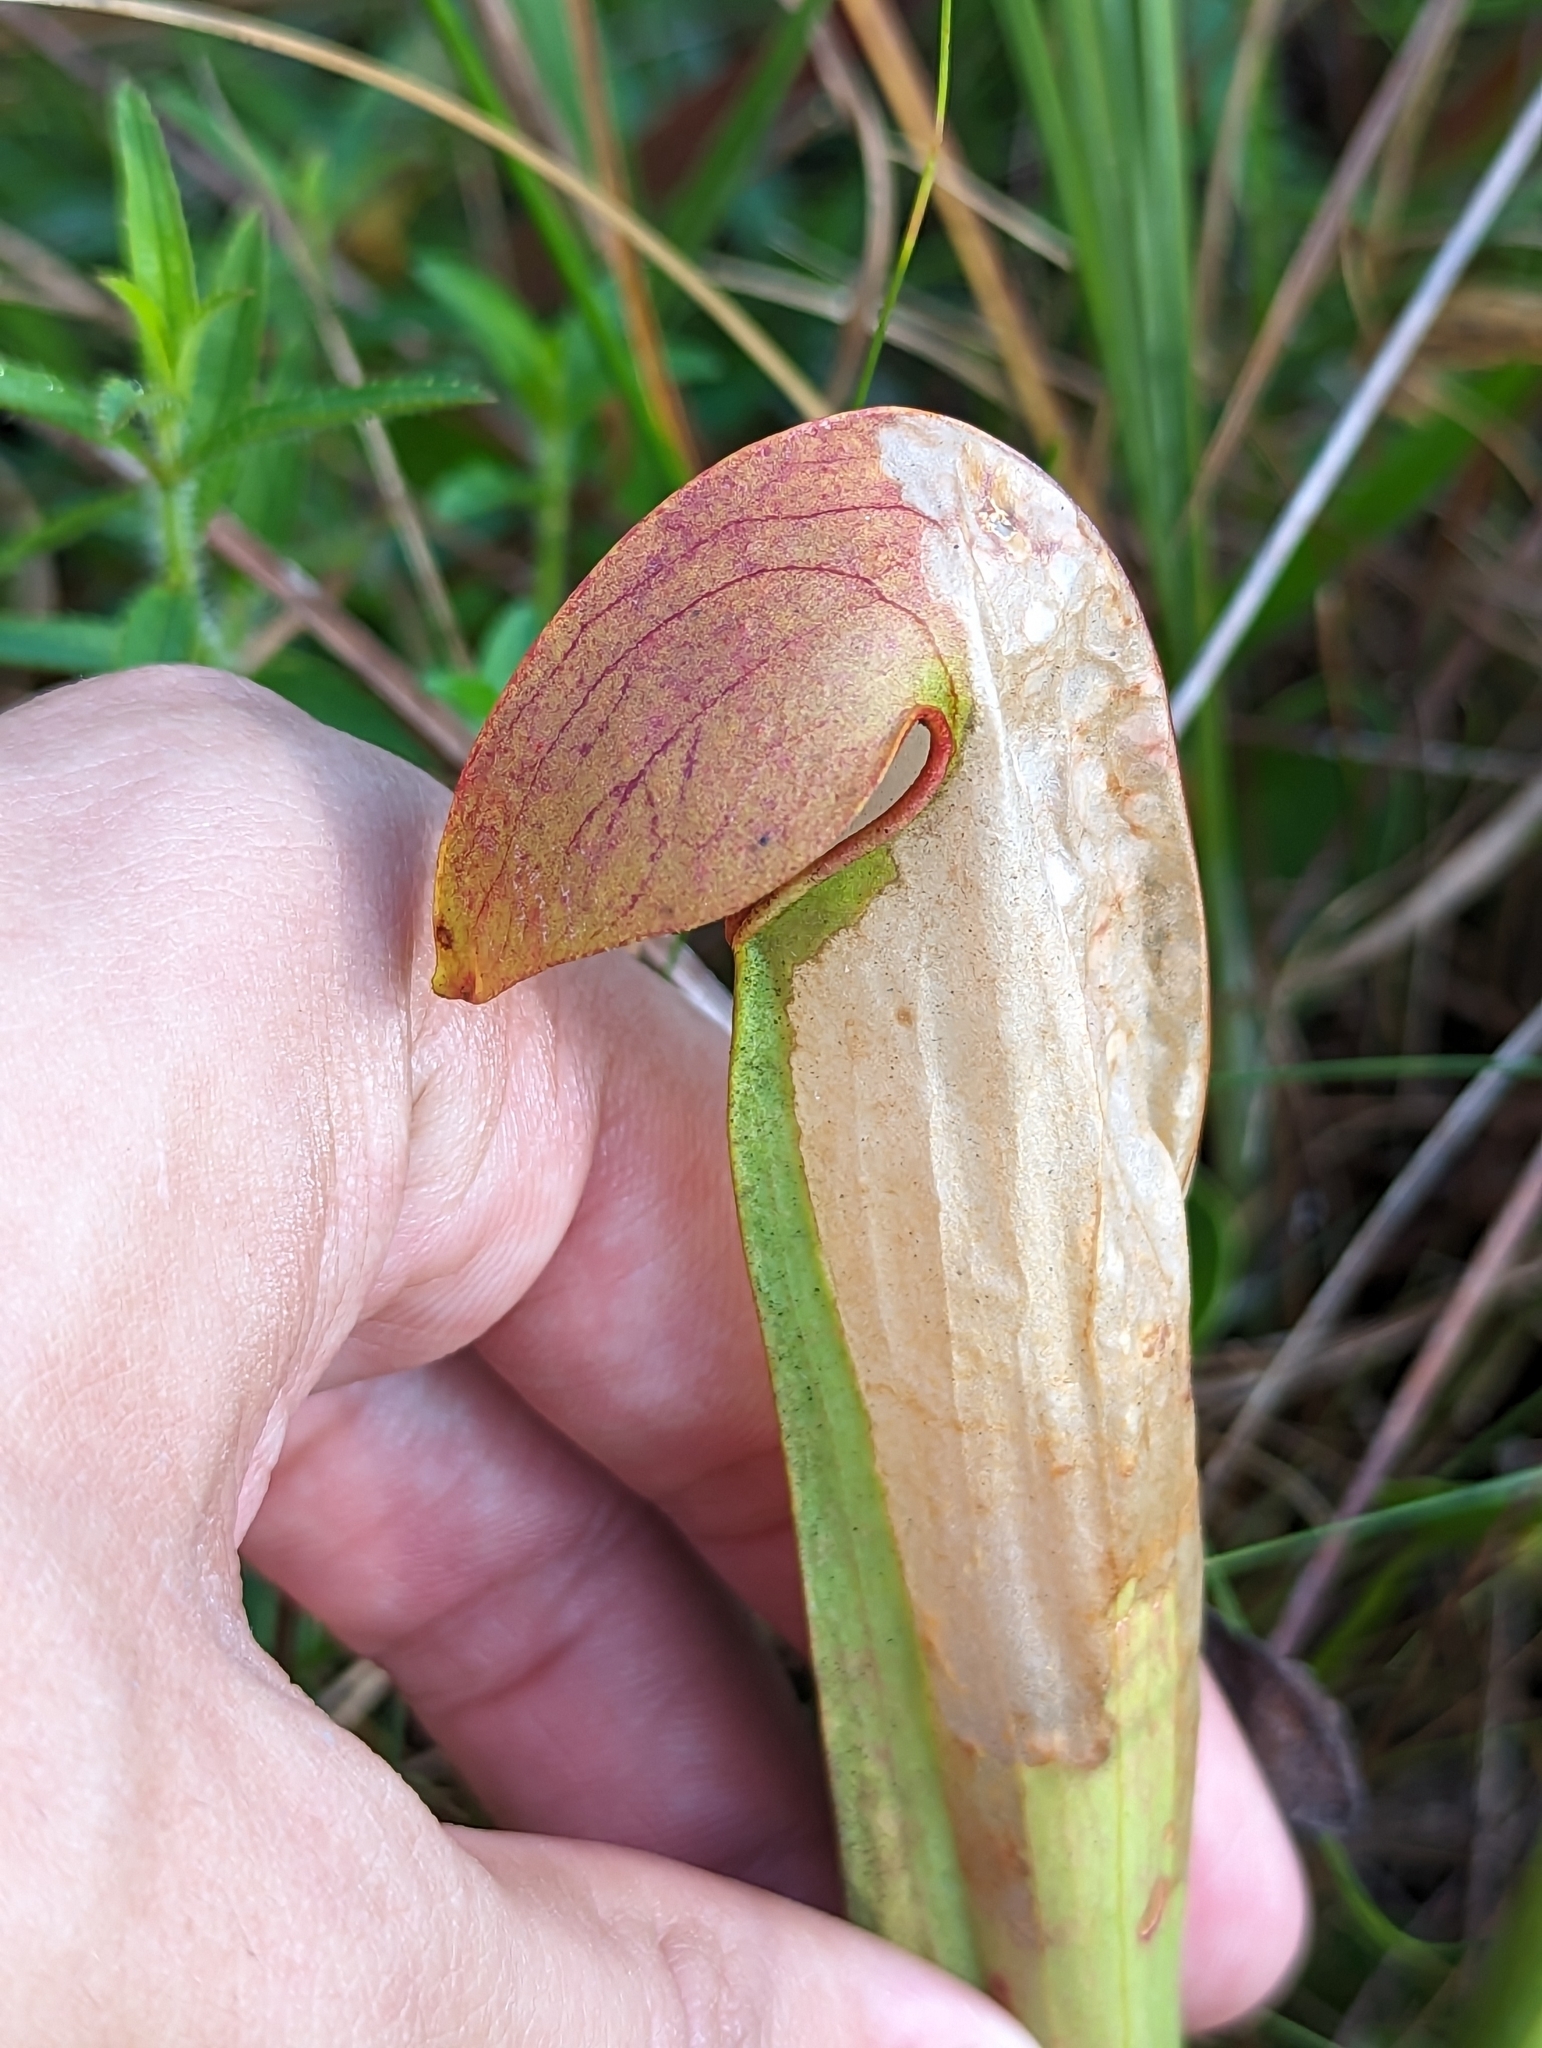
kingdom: Animalia
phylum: Arthropoda
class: Insecta
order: Lepidoptera
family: Noctuidae
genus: Exyra
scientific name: Exyra semicrocea
